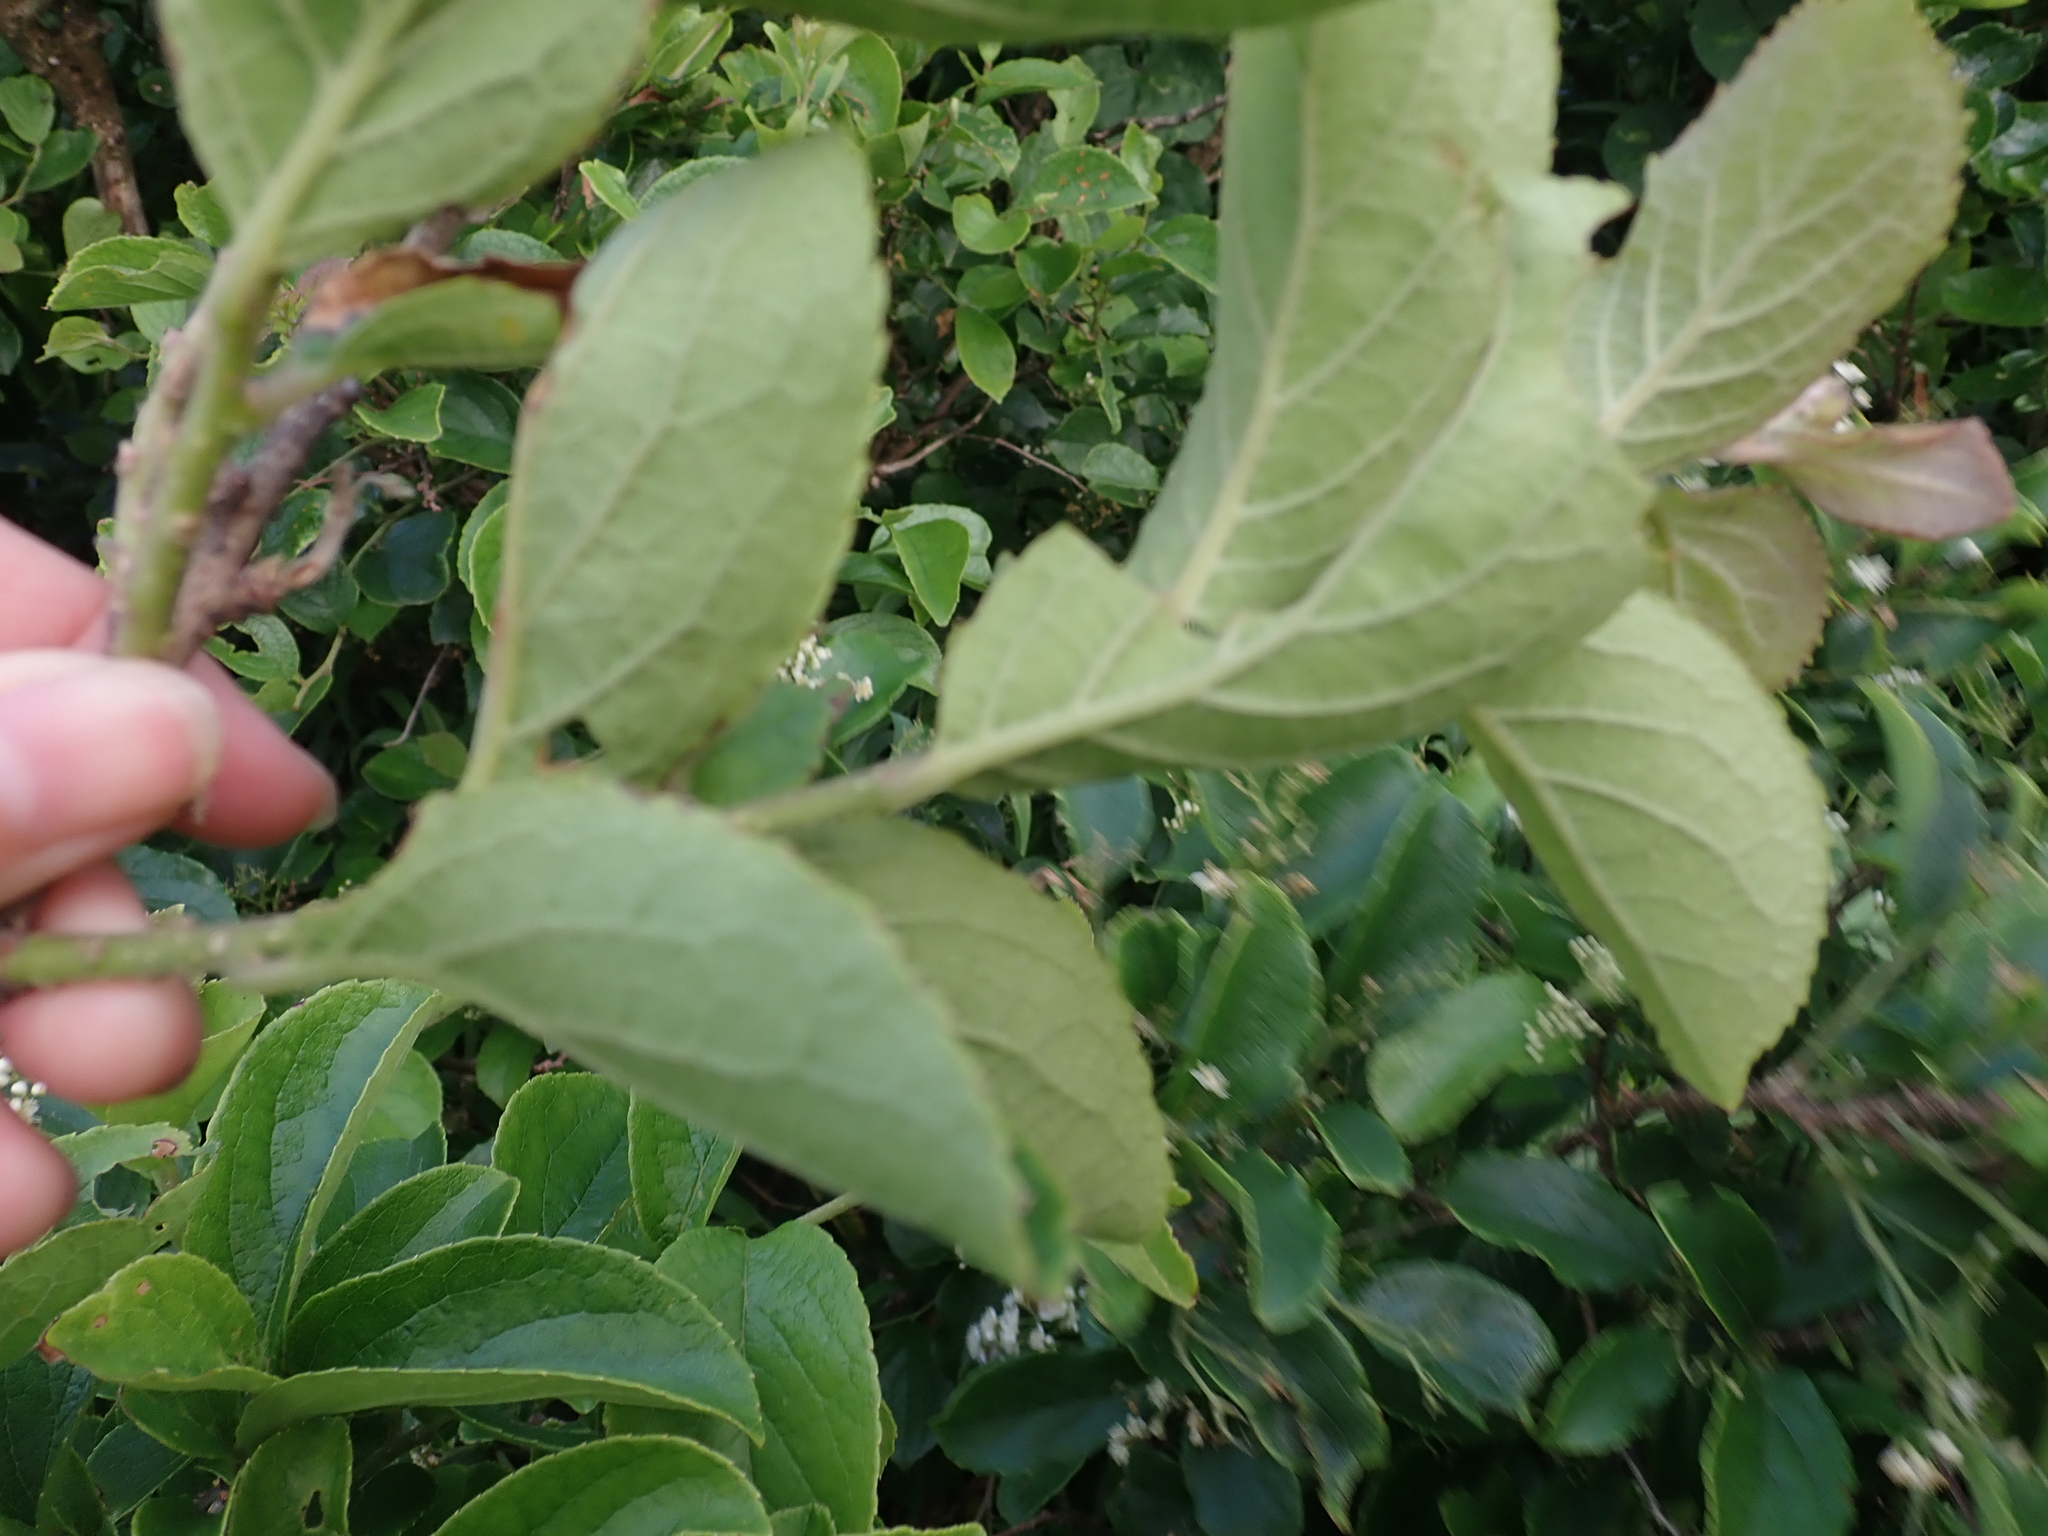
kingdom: Plantae
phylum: Tracheophyta
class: Magnoliopsida
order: Ericales
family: Symplocaceae
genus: Symplocos
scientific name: Symplocos paniculata
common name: Sapphire-berry
